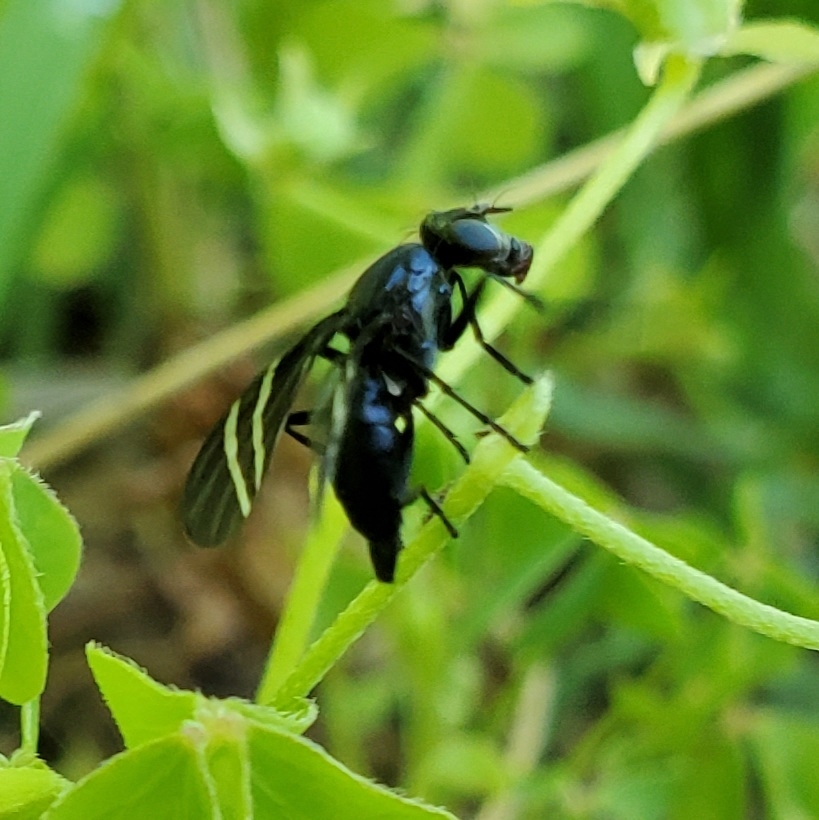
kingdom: Animalia
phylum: Arthropoda
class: Insecta
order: Diptera
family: Ulidiidae
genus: Tritoxa
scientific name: Tritoxa flexa
